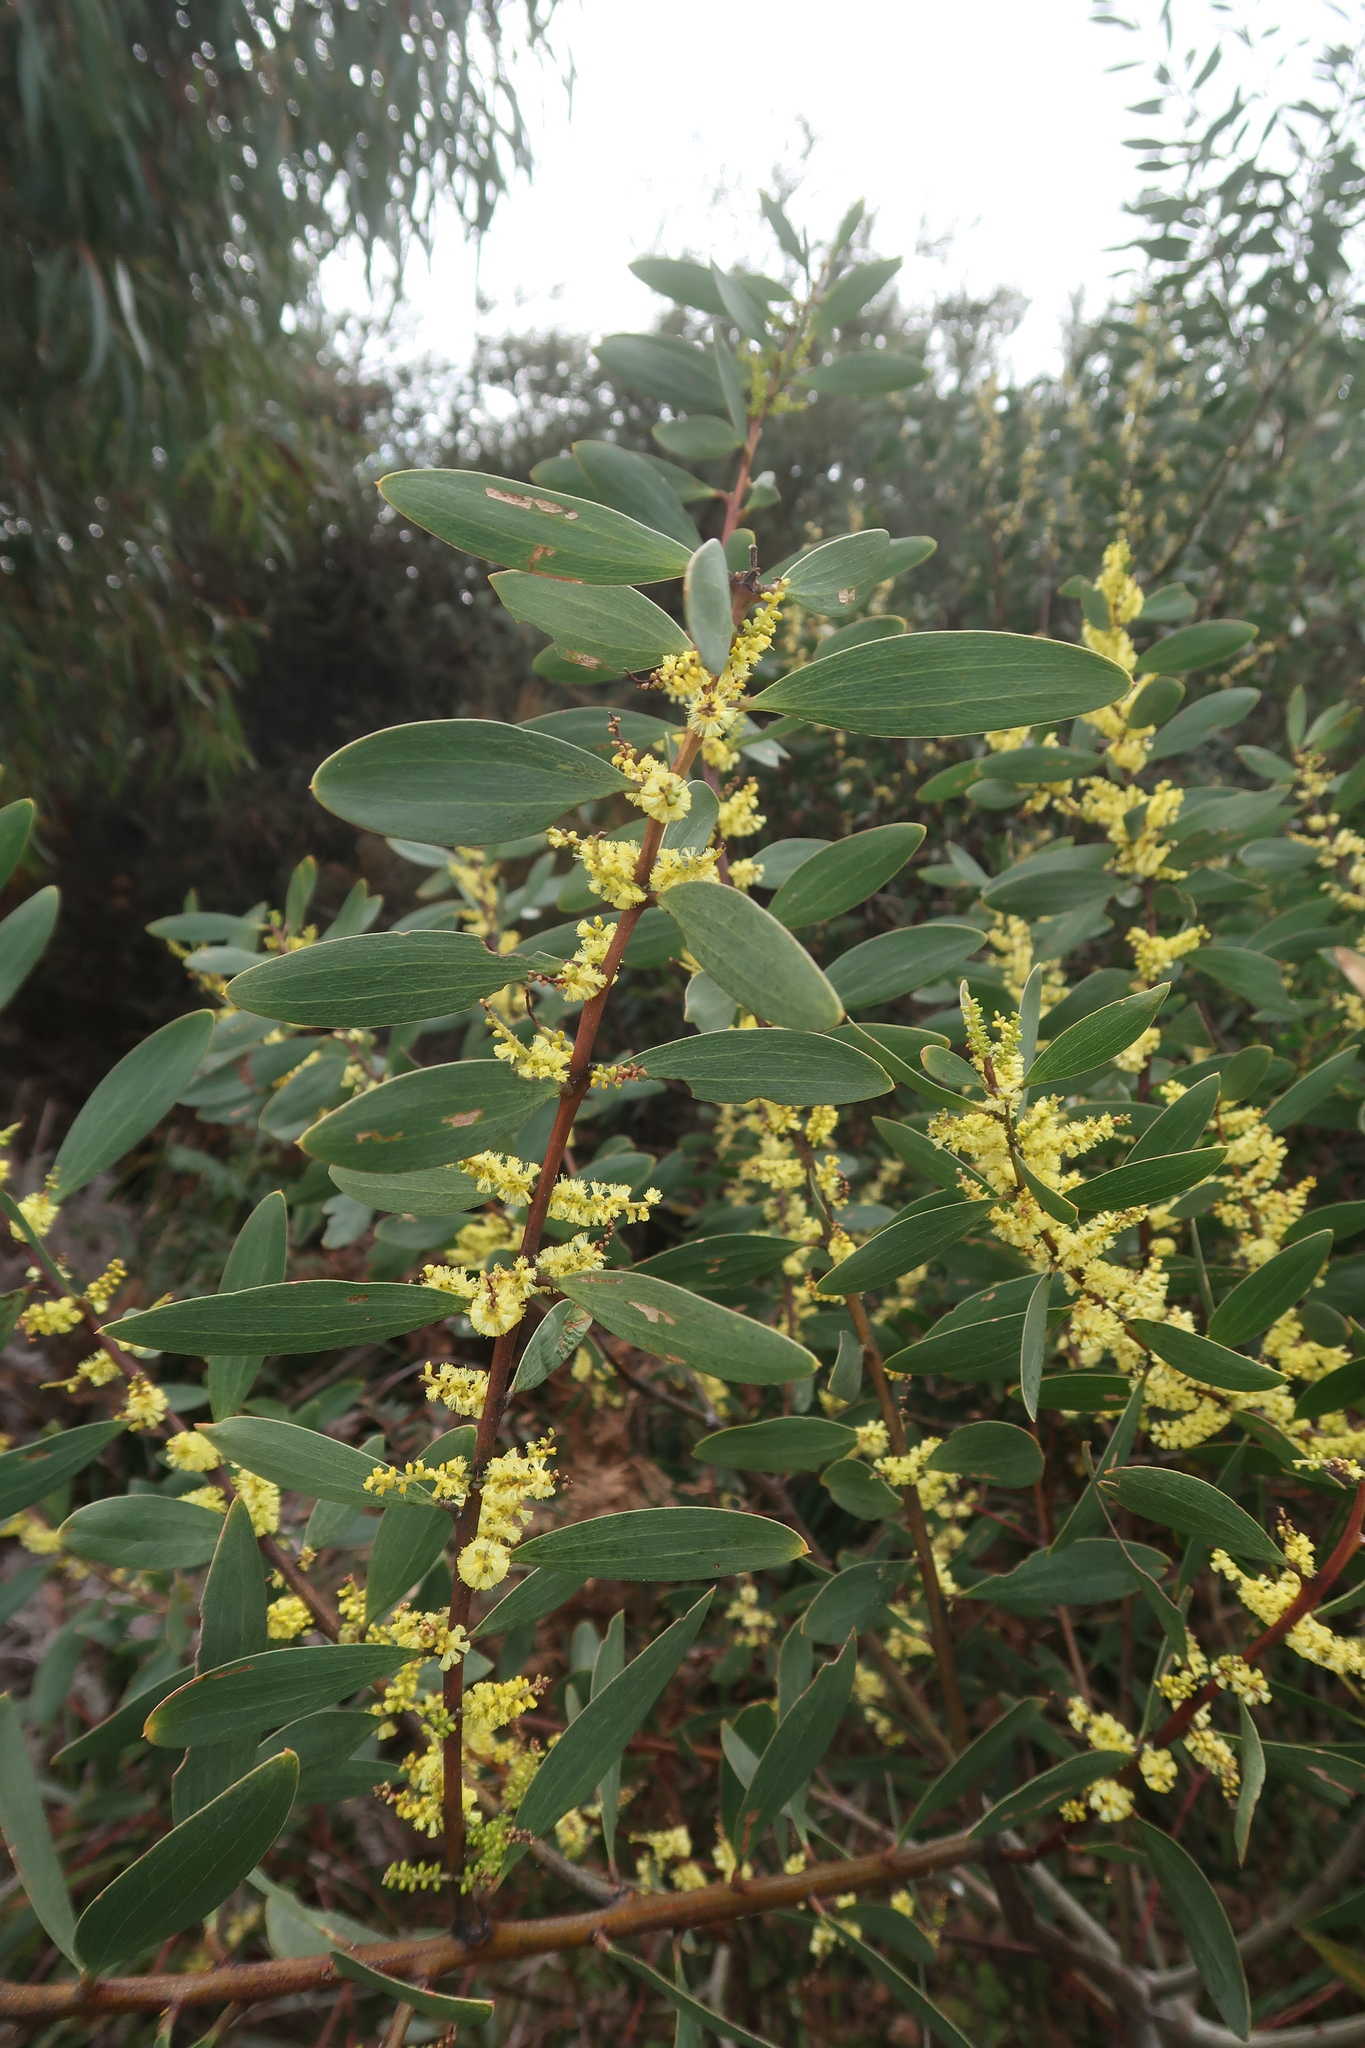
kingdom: Plantae
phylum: Tracheophyta
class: Magnoliopsida
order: Fabales
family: Fabaceae
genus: Acacia
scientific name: Acacia longifolia
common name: Sydney golden wattle
